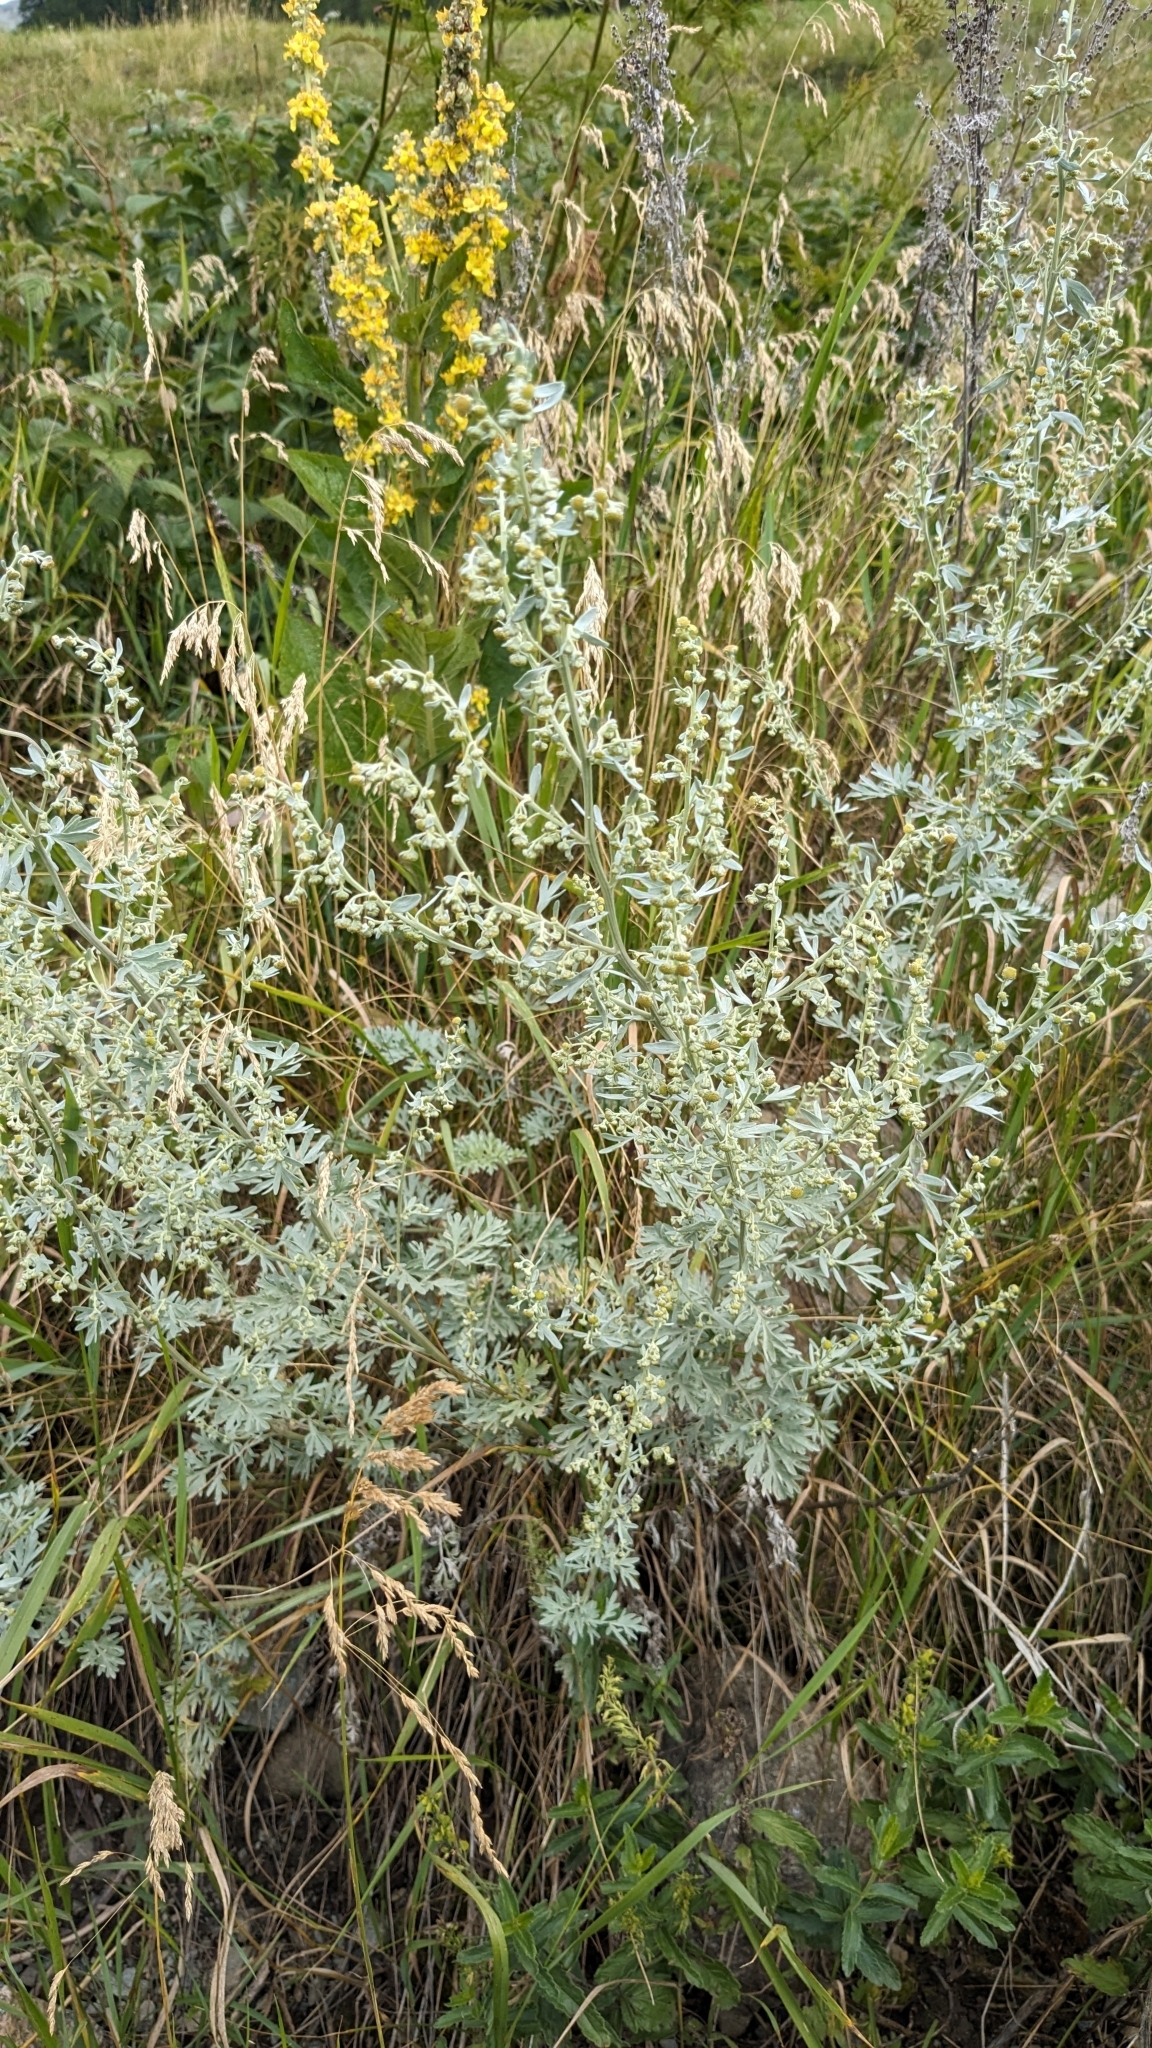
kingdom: Plantae
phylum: Tracheophyta
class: Magnoliopsida
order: Asterales
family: Asteraceae
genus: Artemisia
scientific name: Artemisia absinthium
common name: Wormwood
